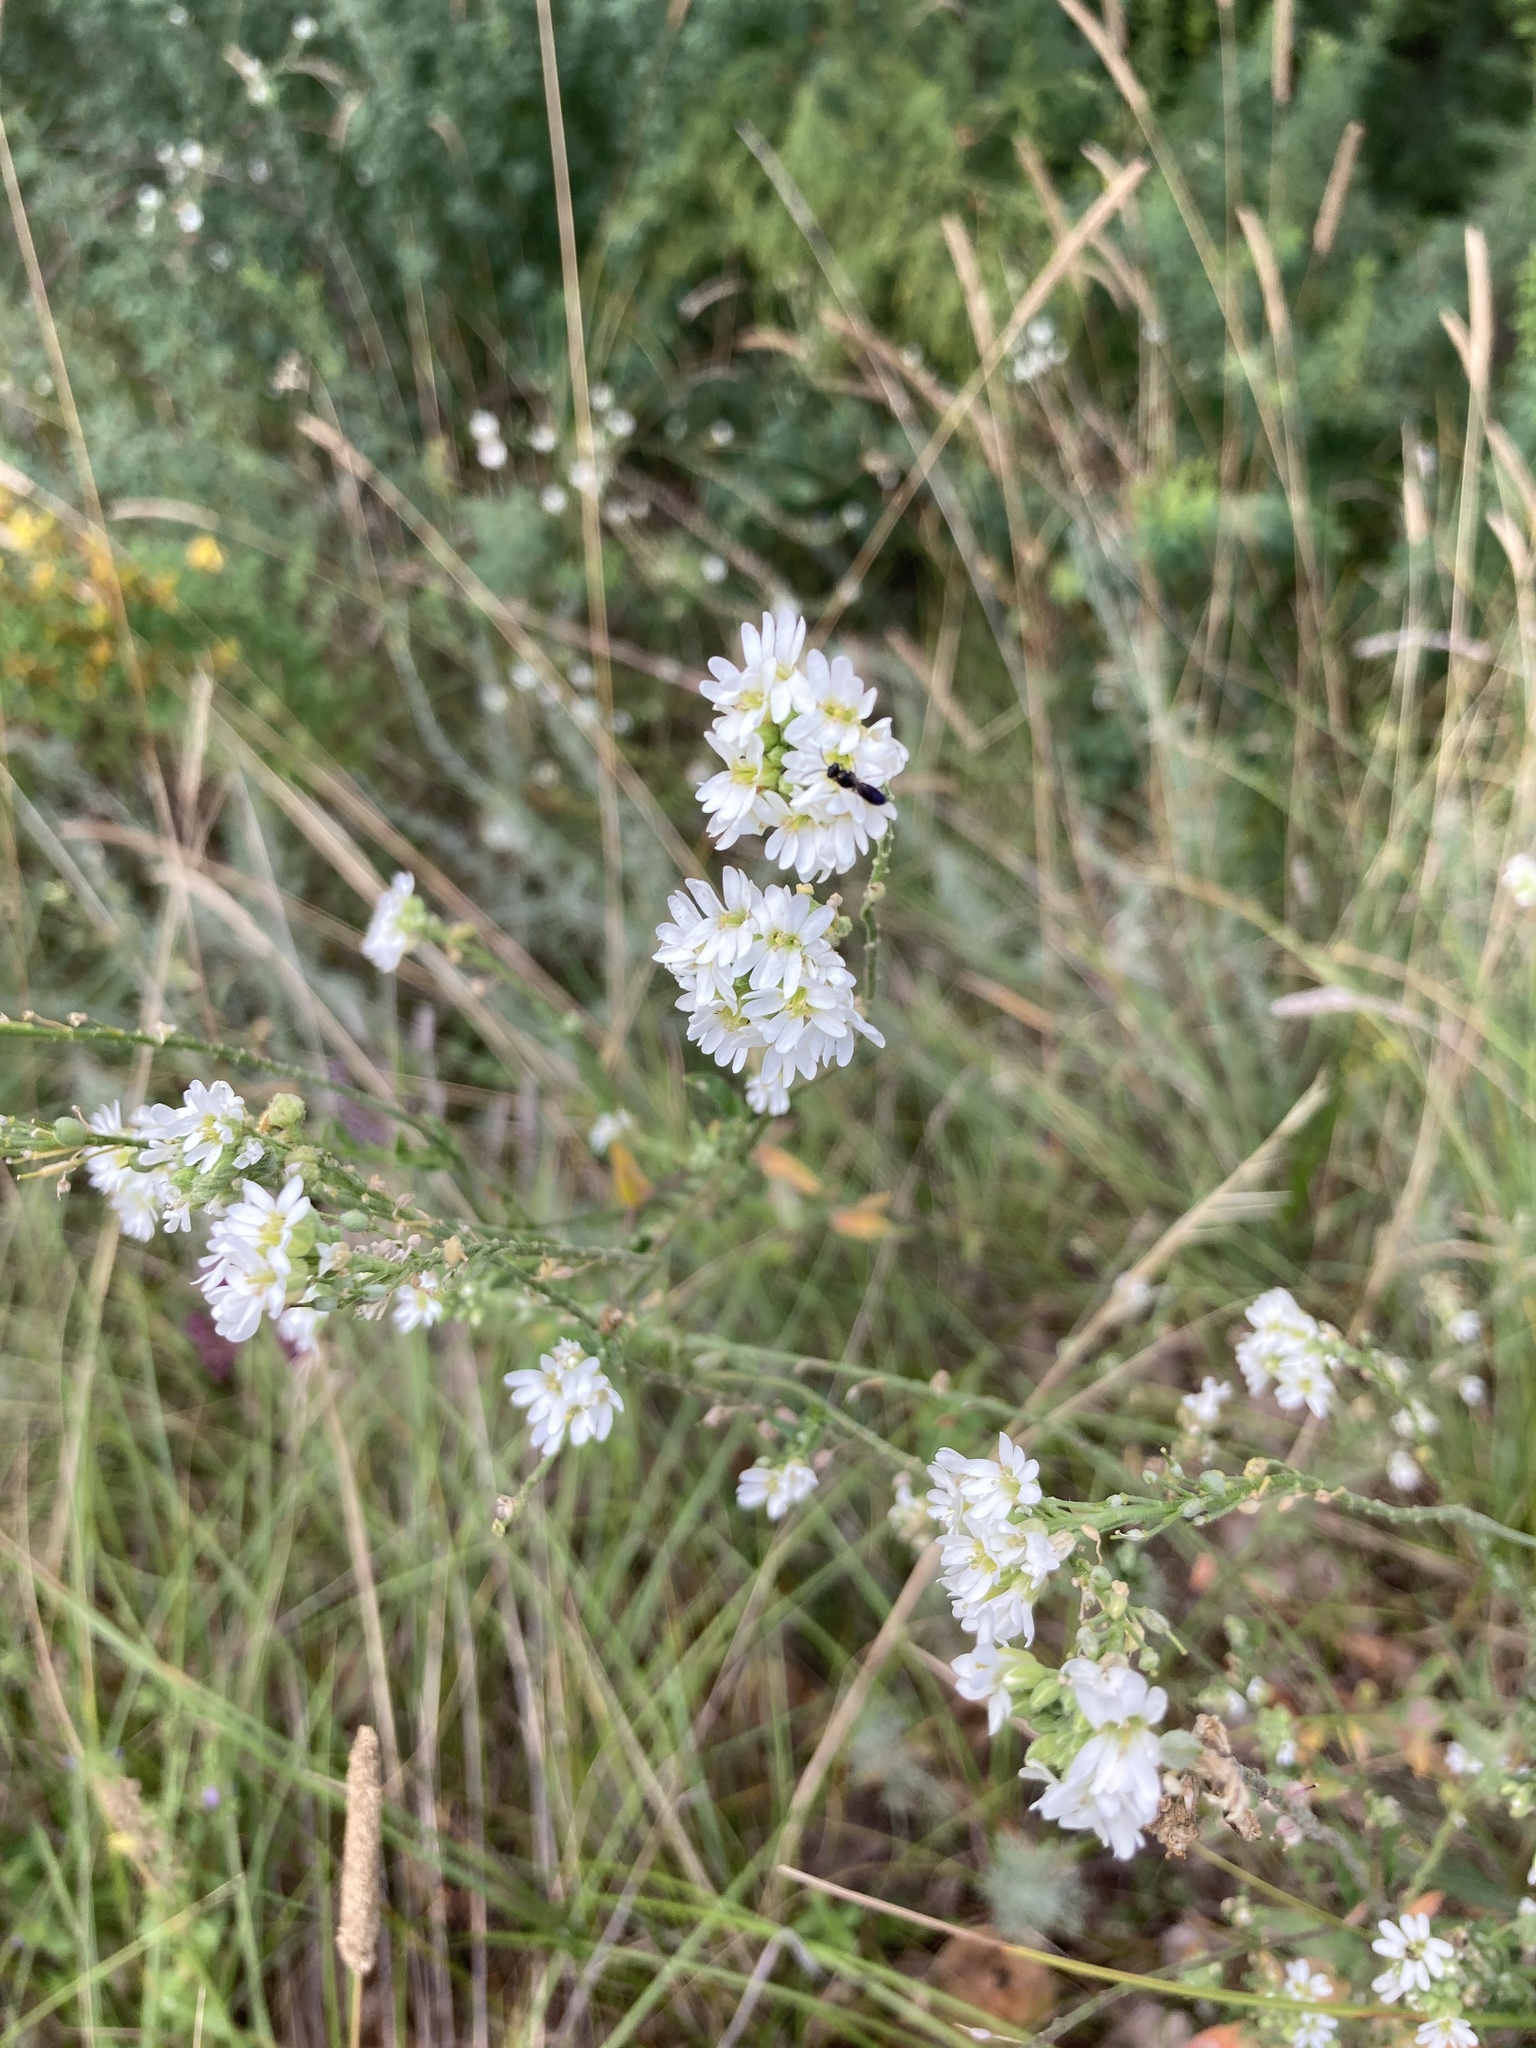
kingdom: Plantae
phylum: Tracheophyta
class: Magnoliopsida
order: Brassicales
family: Brassicaceae
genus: Berteroa
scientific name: Berteroa incana
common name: Hoary alison
